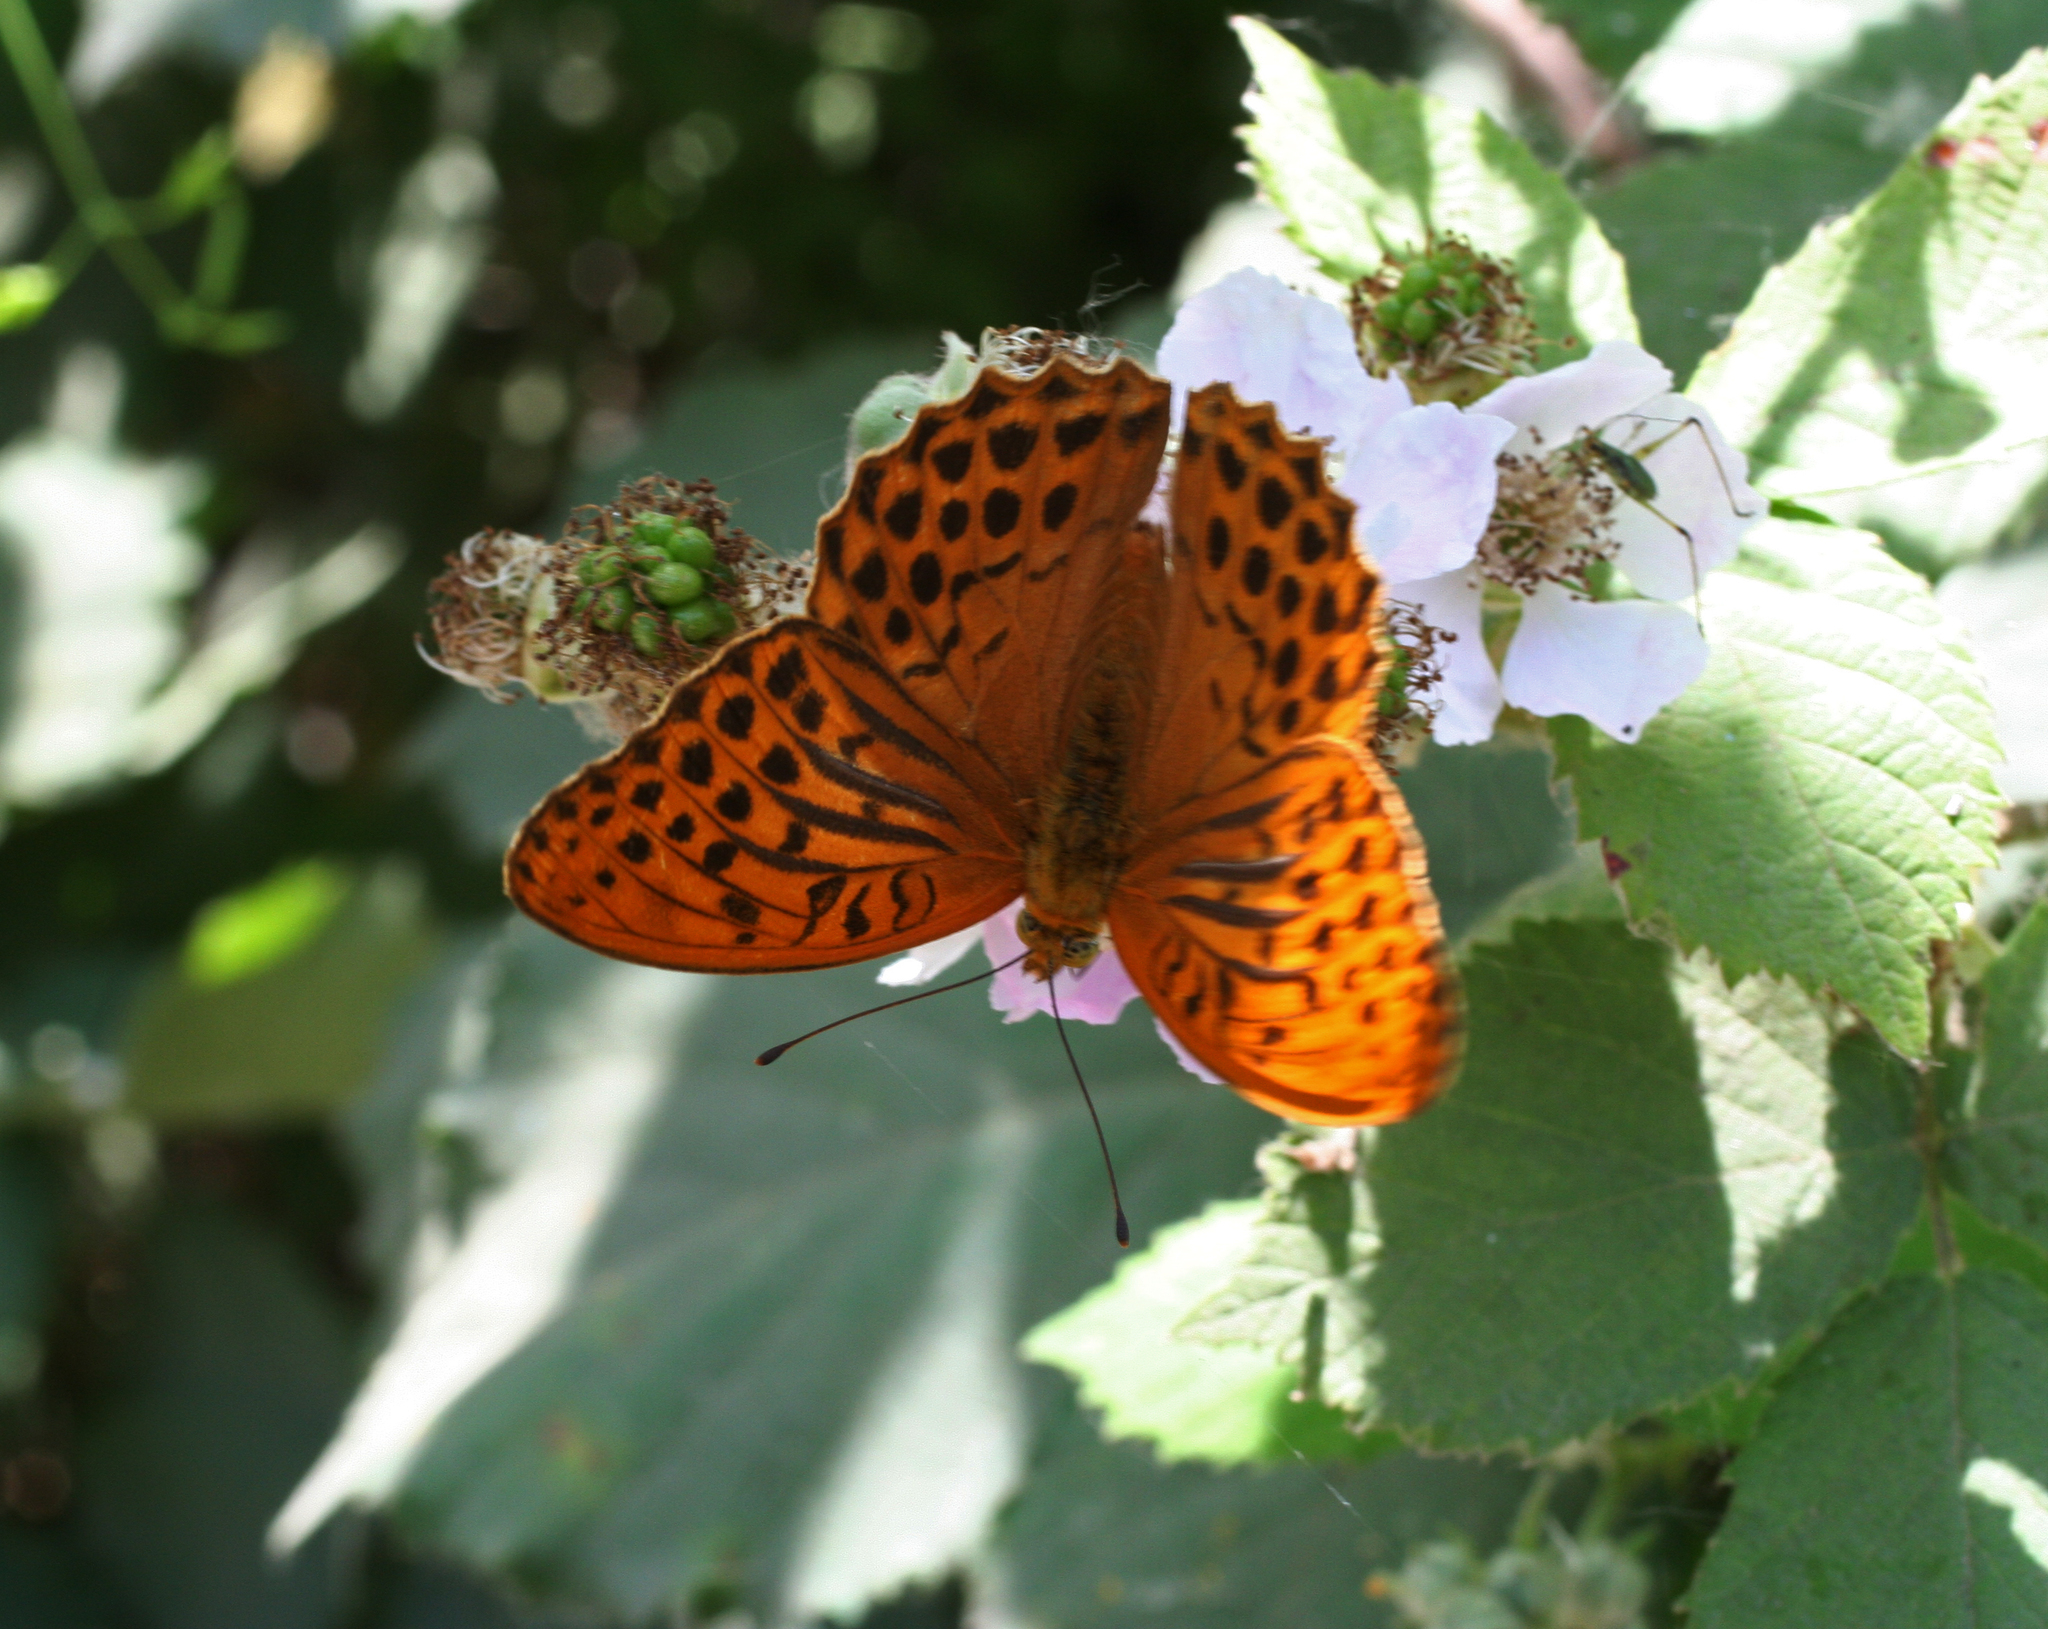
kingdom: Animalia
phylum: Arthropoda
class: Insecta
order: Lepidoptera
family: Nymphalidae
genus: Argynnis
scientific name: Argynnis paphia
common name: Silver-washed fritillary
